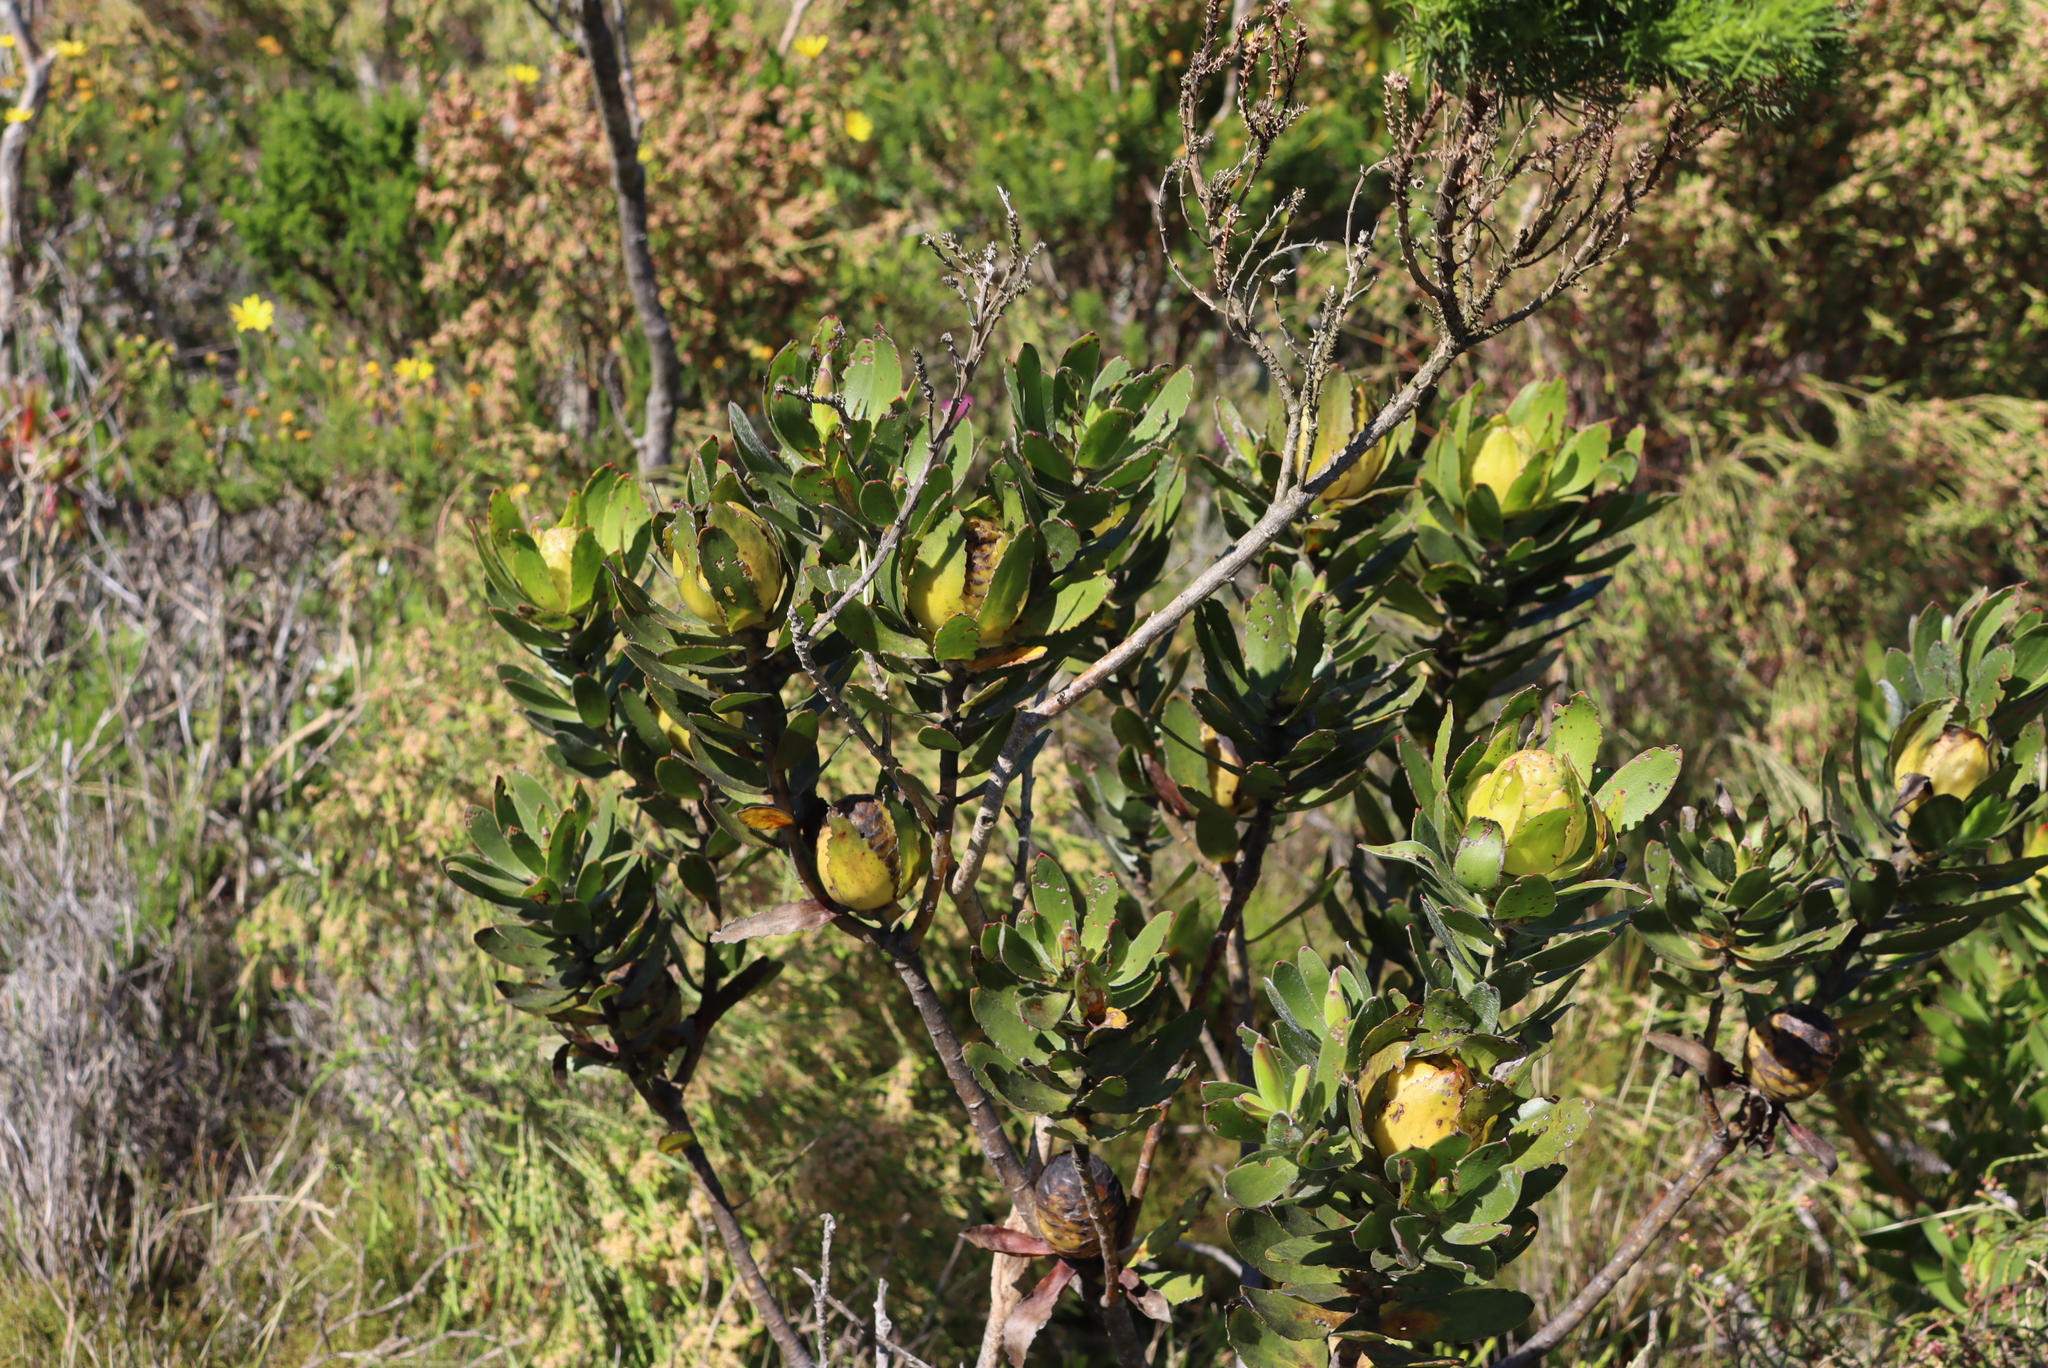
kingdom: Plantae
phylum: Tracheophyta
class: Magnoliopsida
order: Proteales
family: Proteaceae
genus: Leucadendron
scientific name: Leucadendron laureolum
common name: Golden sunshinebush
